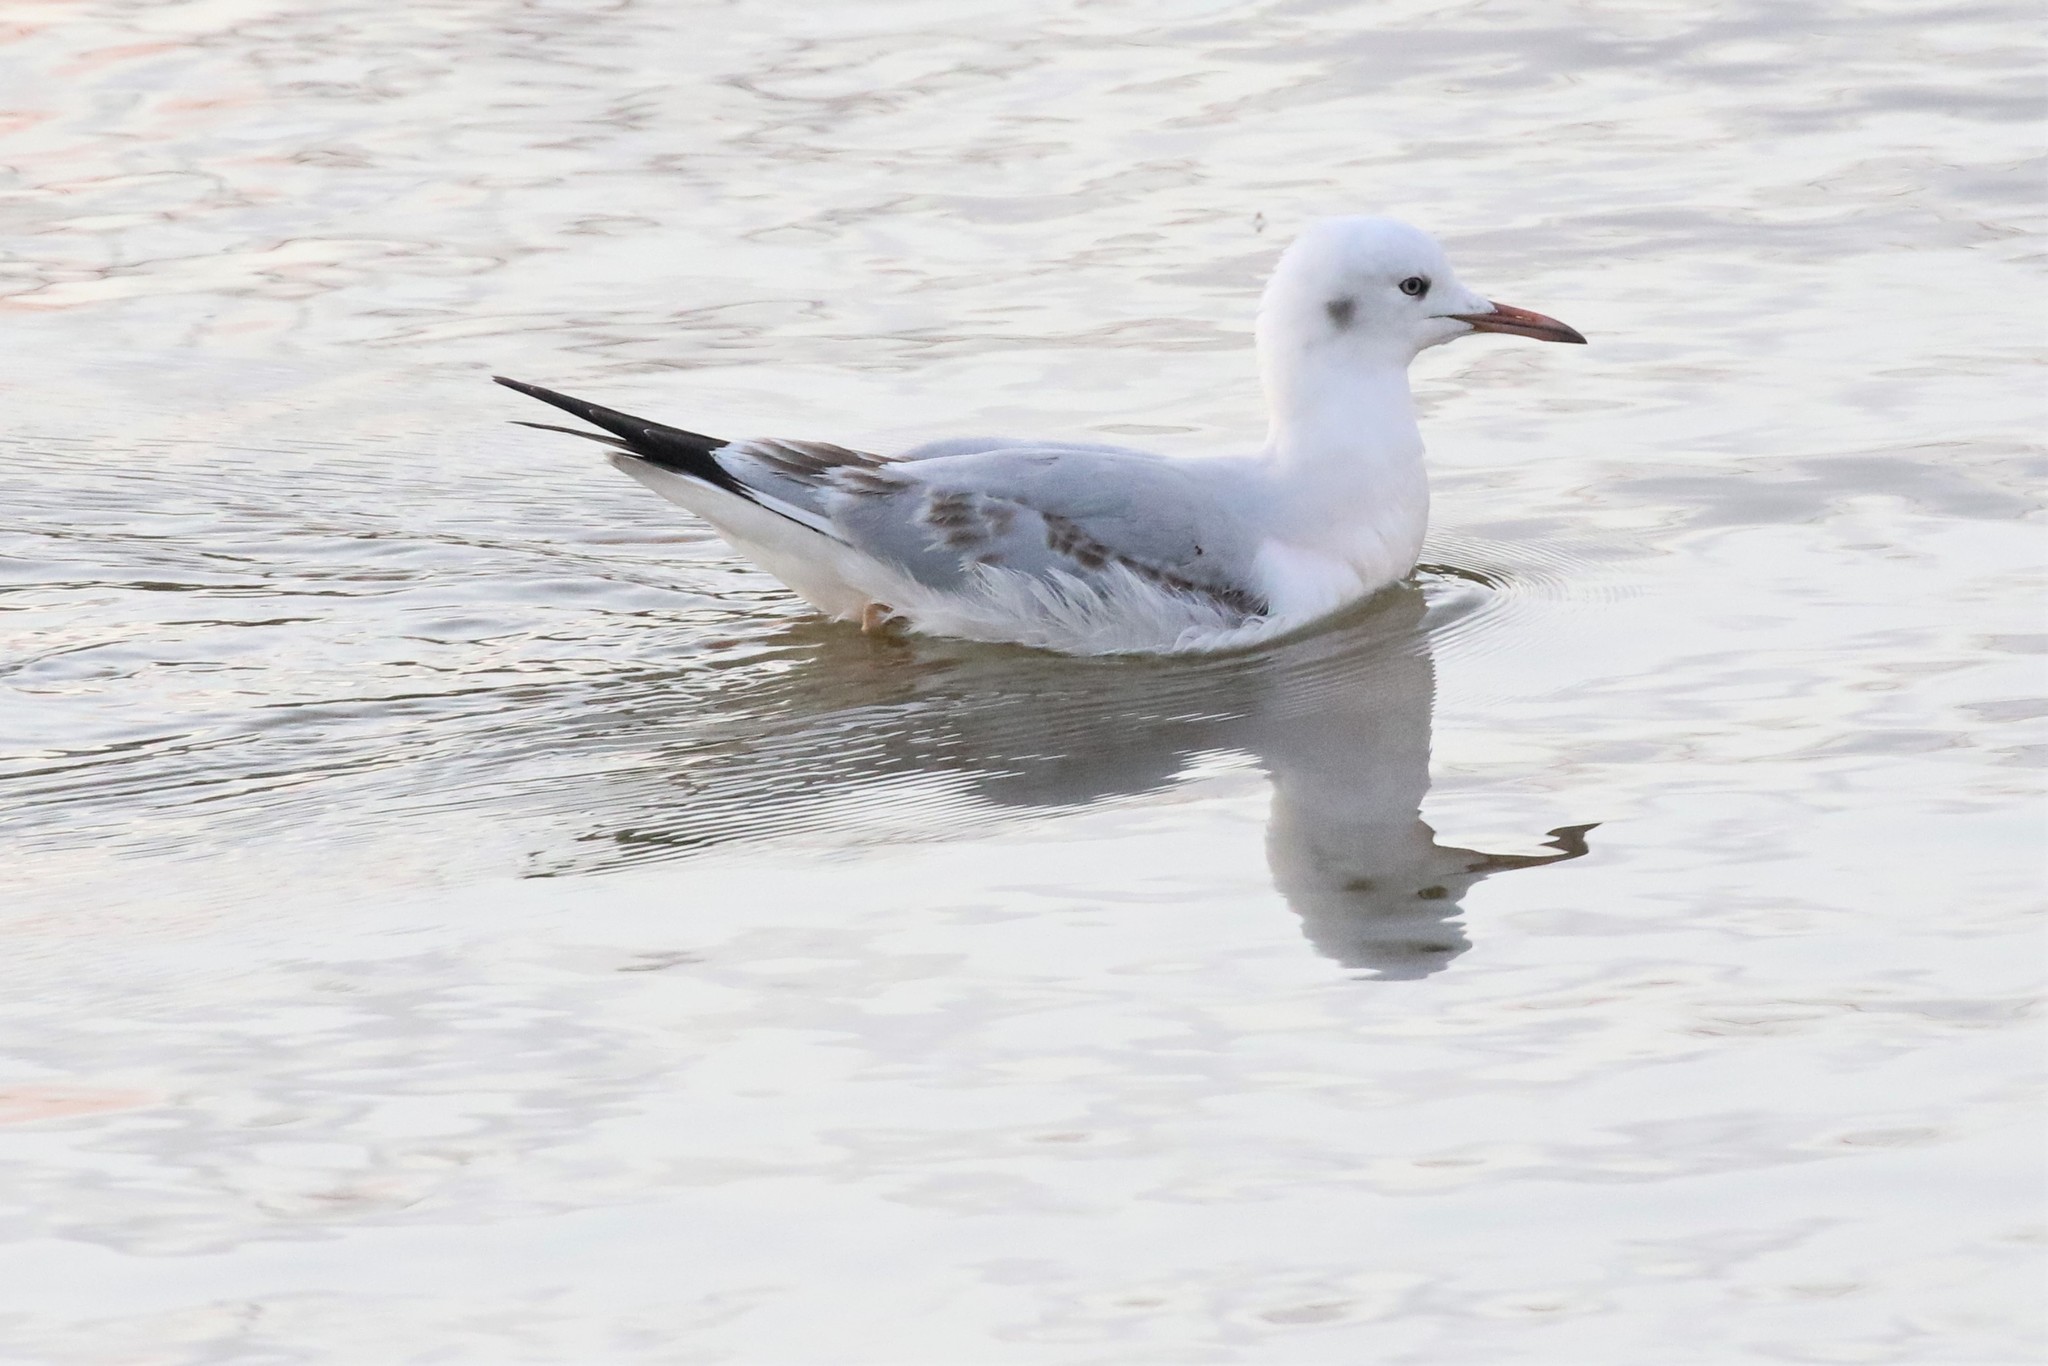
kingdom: Animalia
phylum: Chordata
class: Aves
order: Charadriiformes
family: Laridae
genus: Chroicocephalus
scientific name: Chroicocephalus genei
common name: Slender-billed gull
